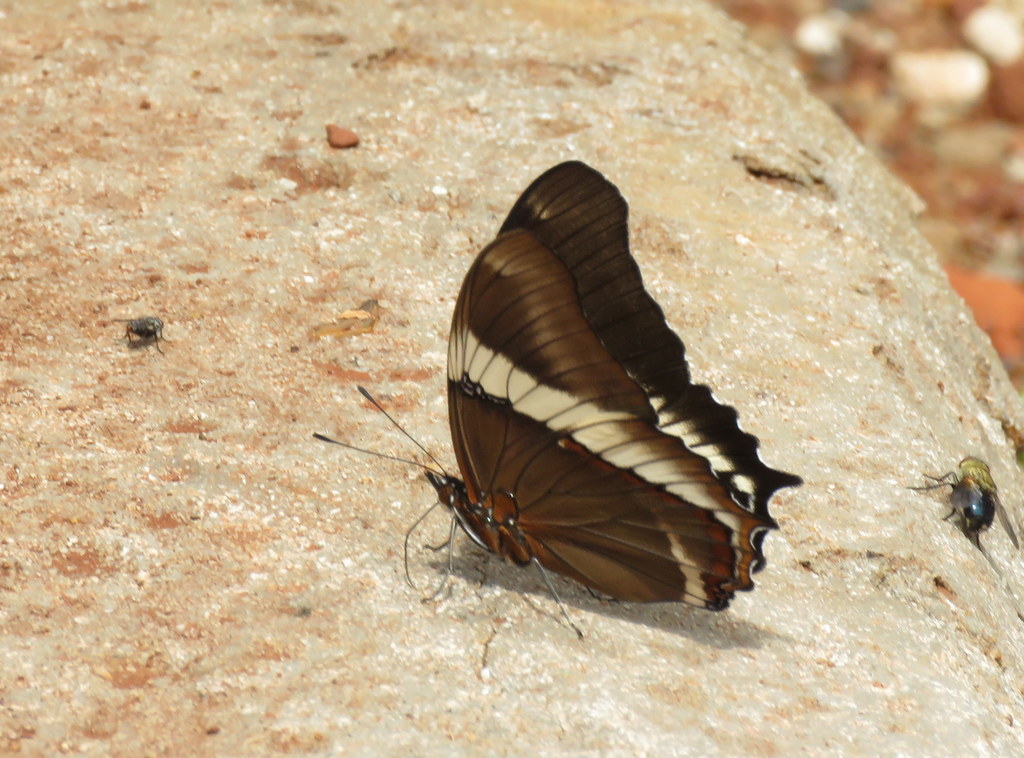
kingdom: Animalia
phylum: Arthropoda
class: Insecta
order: Lepidoptera
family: Nymphalidae
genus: Siproeta
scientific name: Siproeta epaphus
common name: Rusty-tipped page
